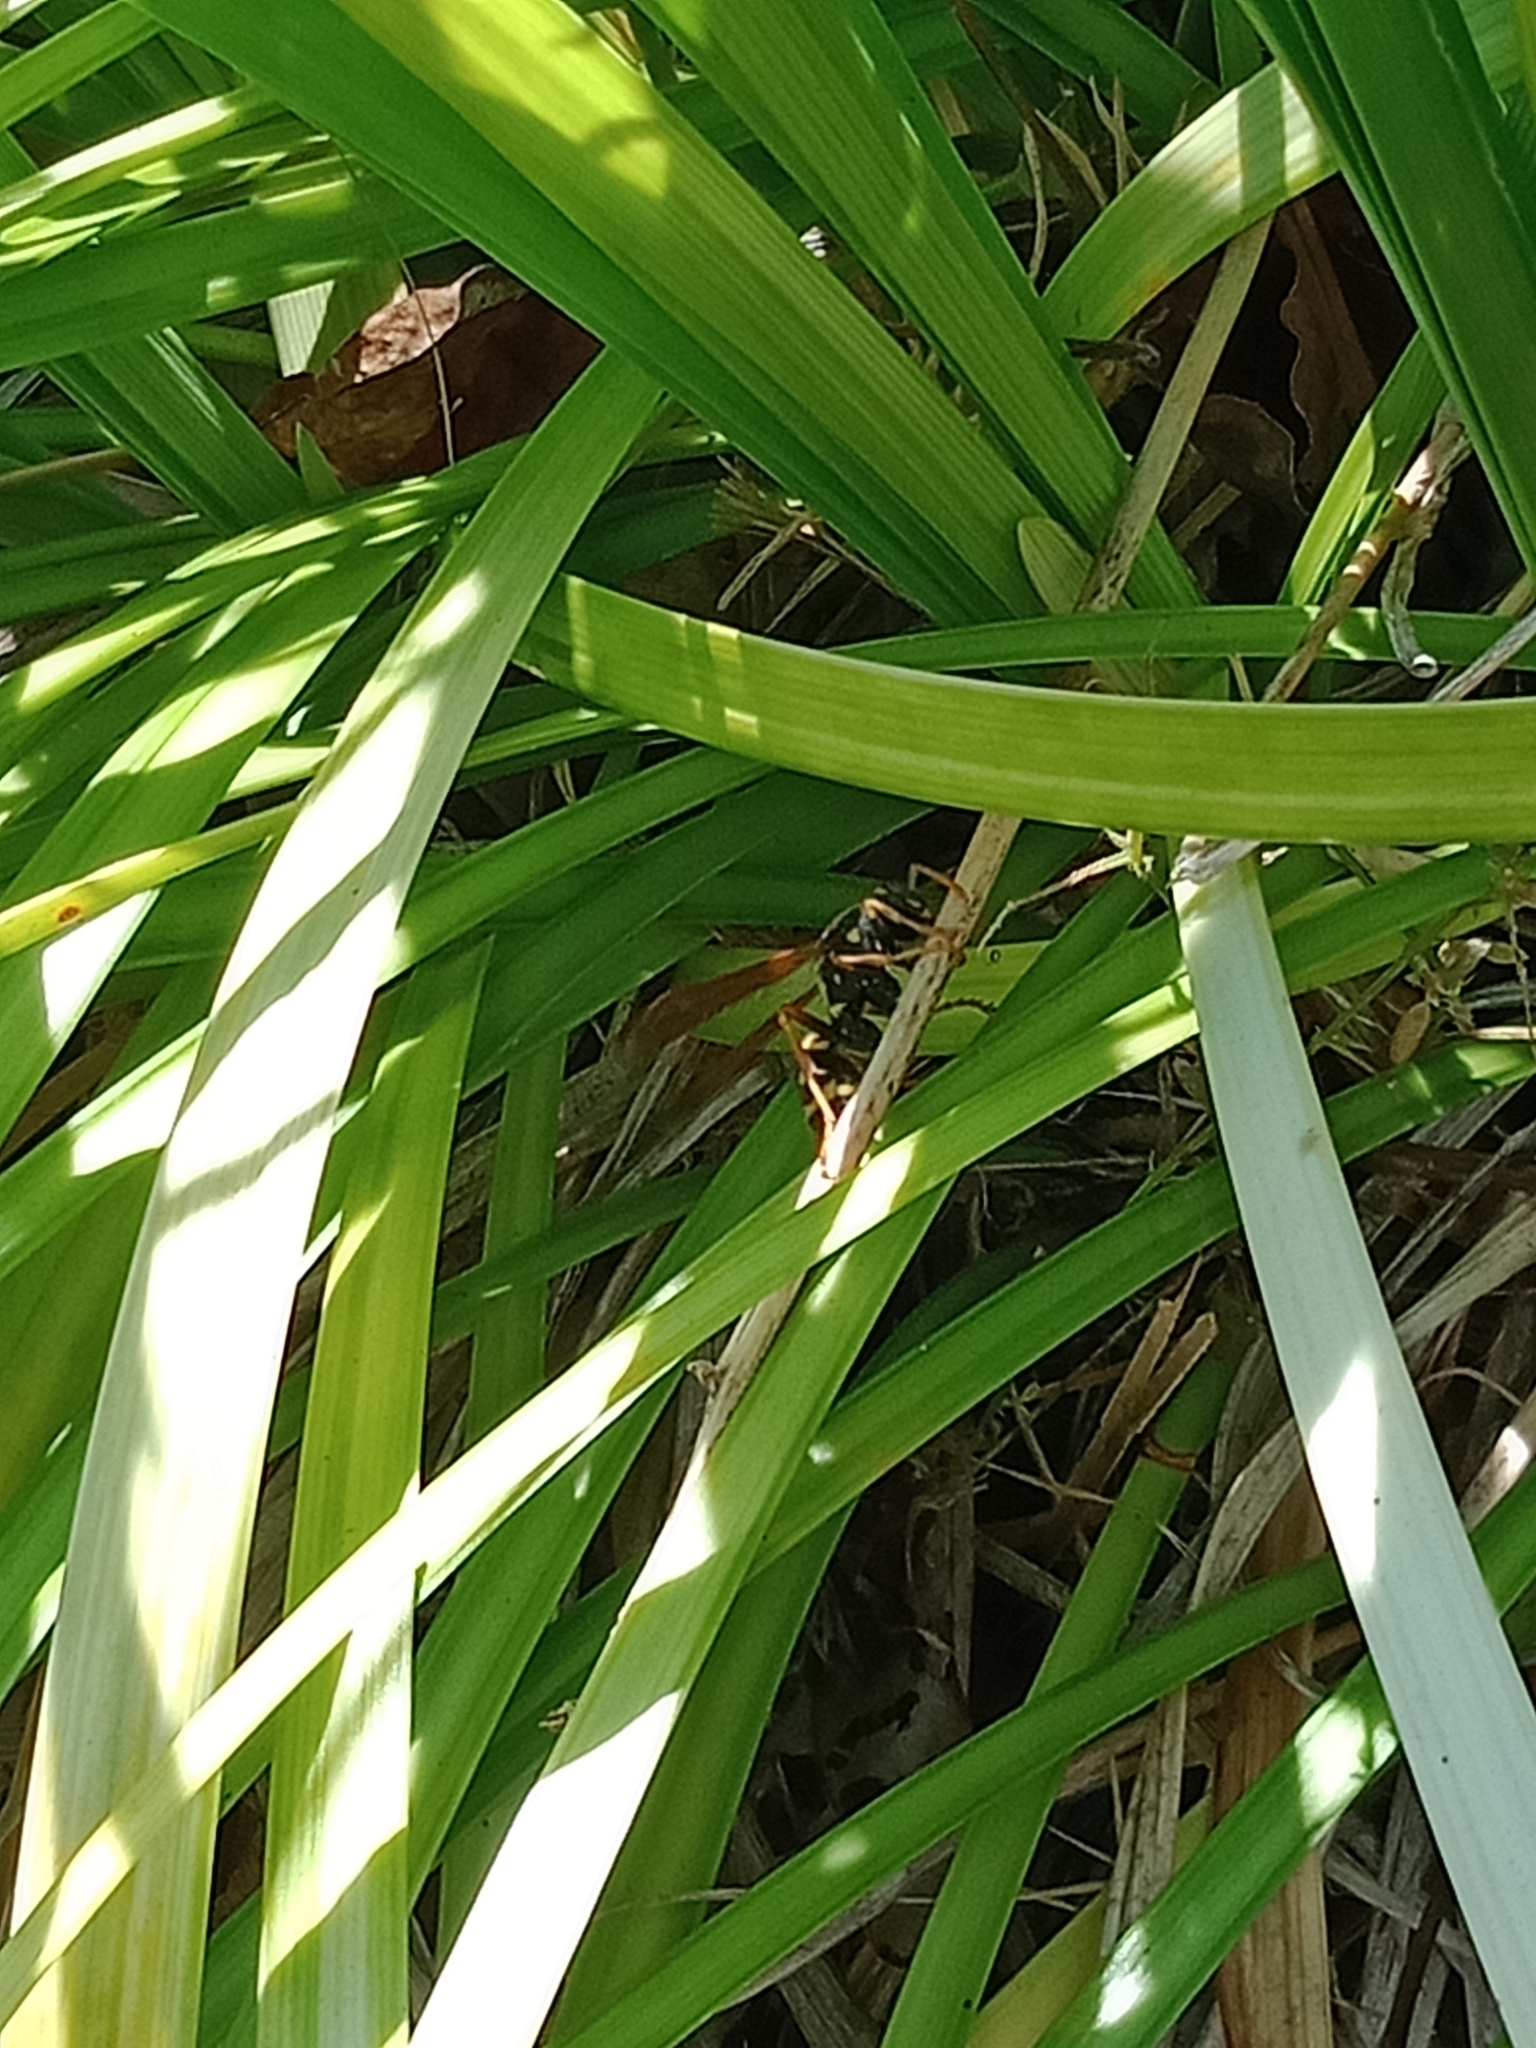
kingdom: Animalia
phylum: Arthropoda
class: Insecta
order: Hymenoptera
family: Eumenidae
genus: Polistes
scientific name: Polistes chinensis
